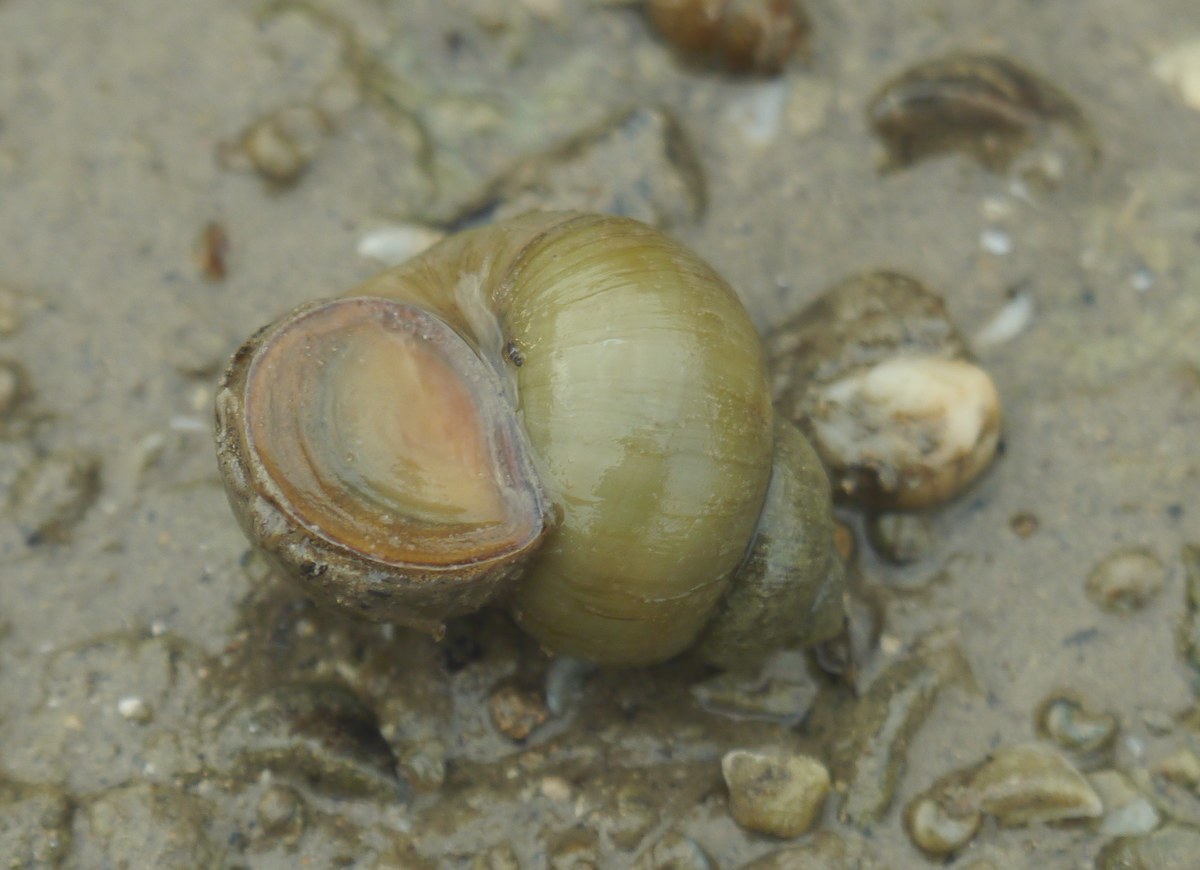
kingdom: Animalia
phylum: Mollusca
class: Gastropoda
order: Architaenioglossa
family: Viviparidae
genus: Viviparus
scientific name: Viviparus viviparus
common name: River snail
